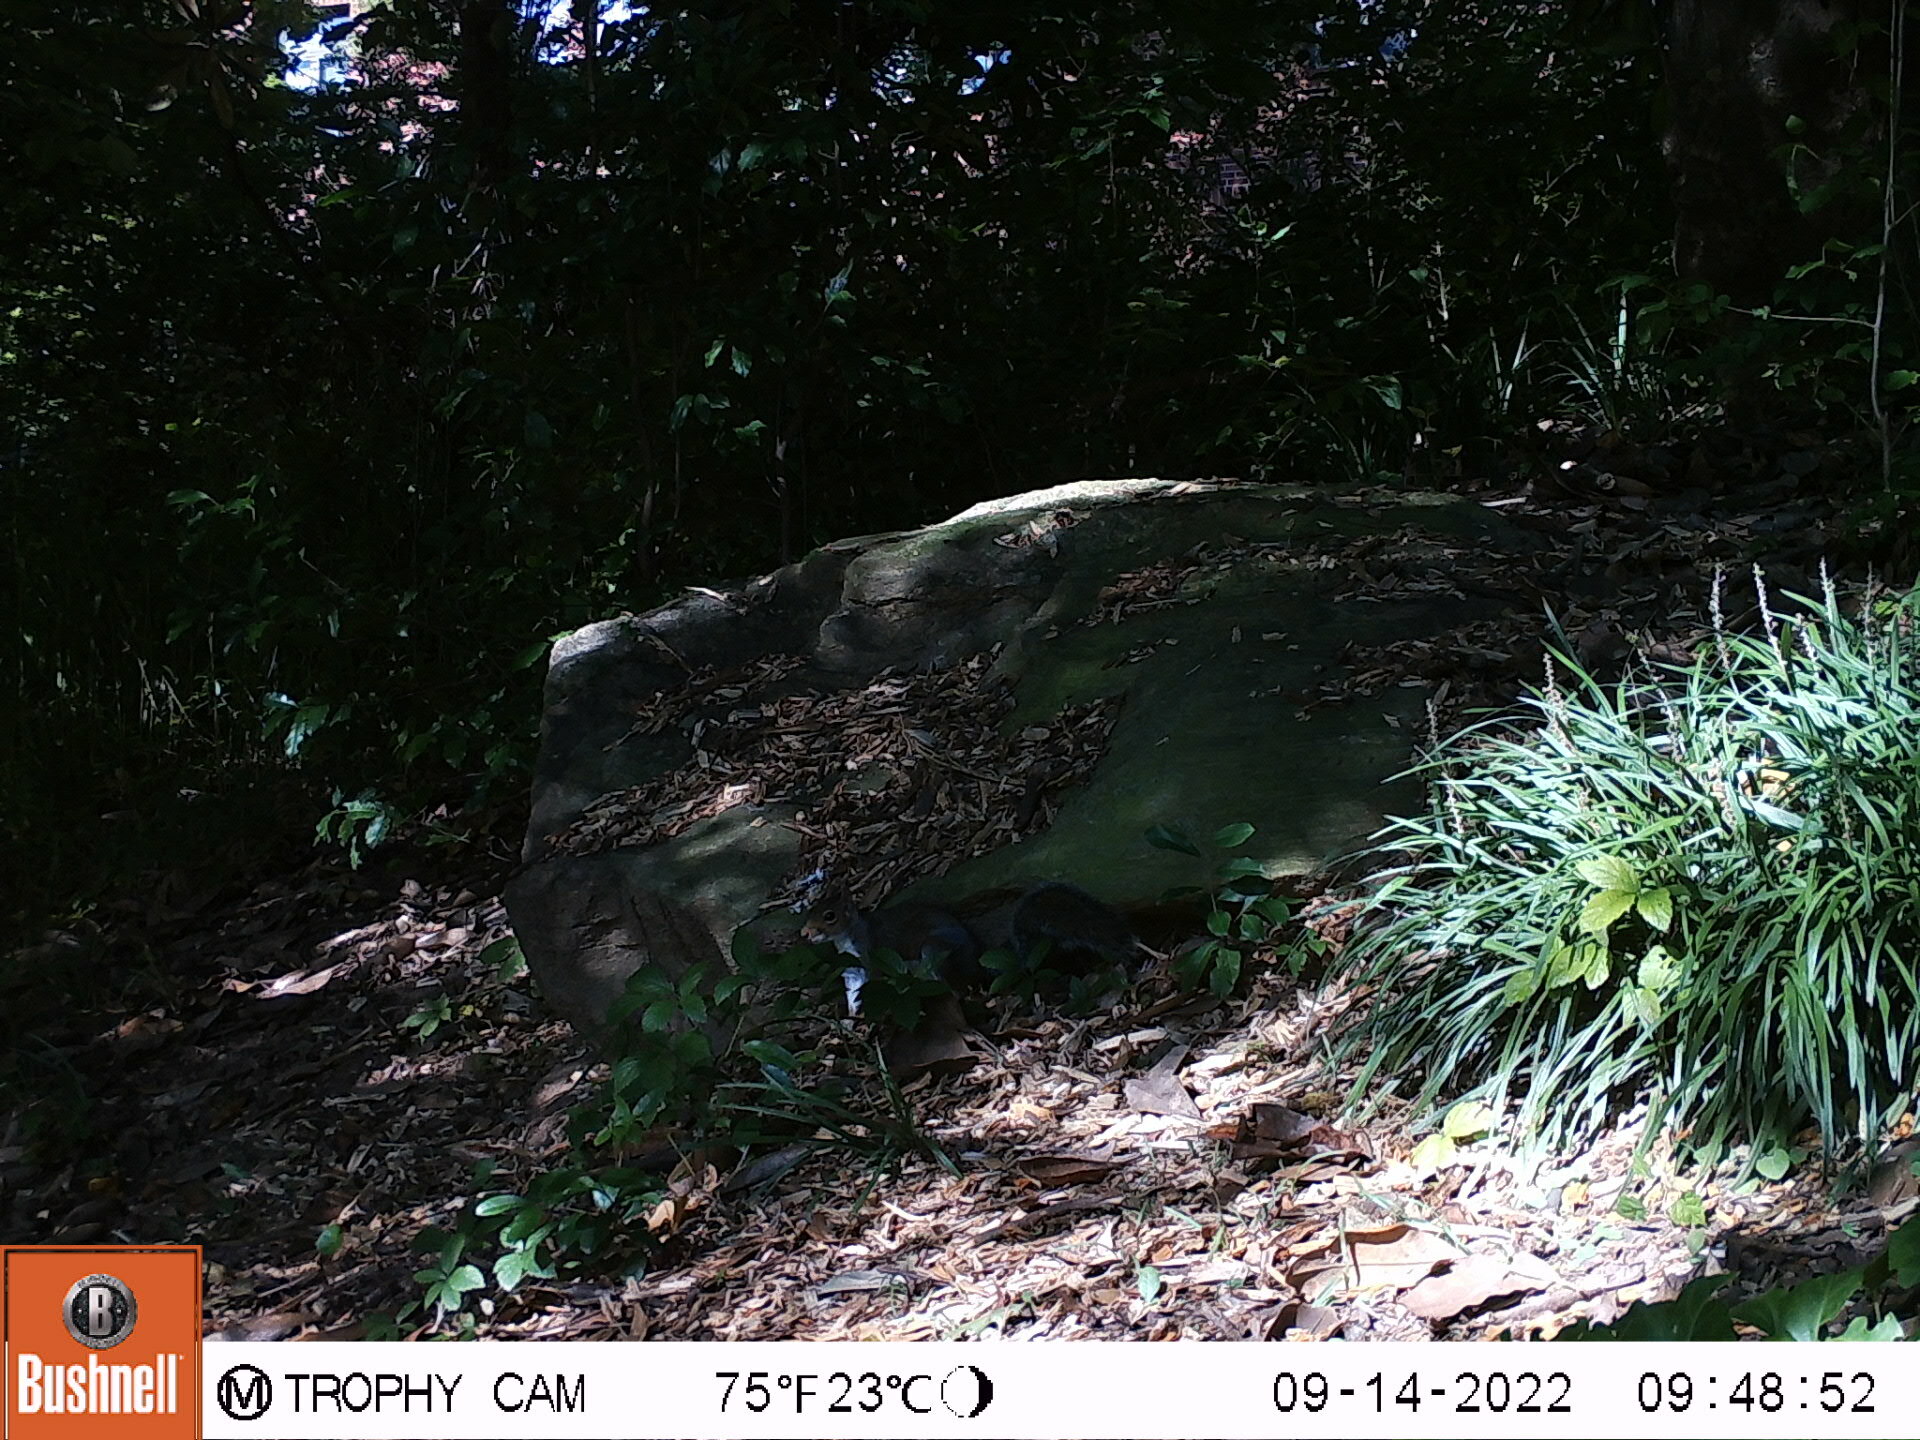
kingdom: Animalia
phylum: Chordata
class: Mammalia
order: Rodentia
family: Sciuridae
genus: Sciurus
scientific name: Sciurus carolinensis
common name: Eastern gray squirrel
